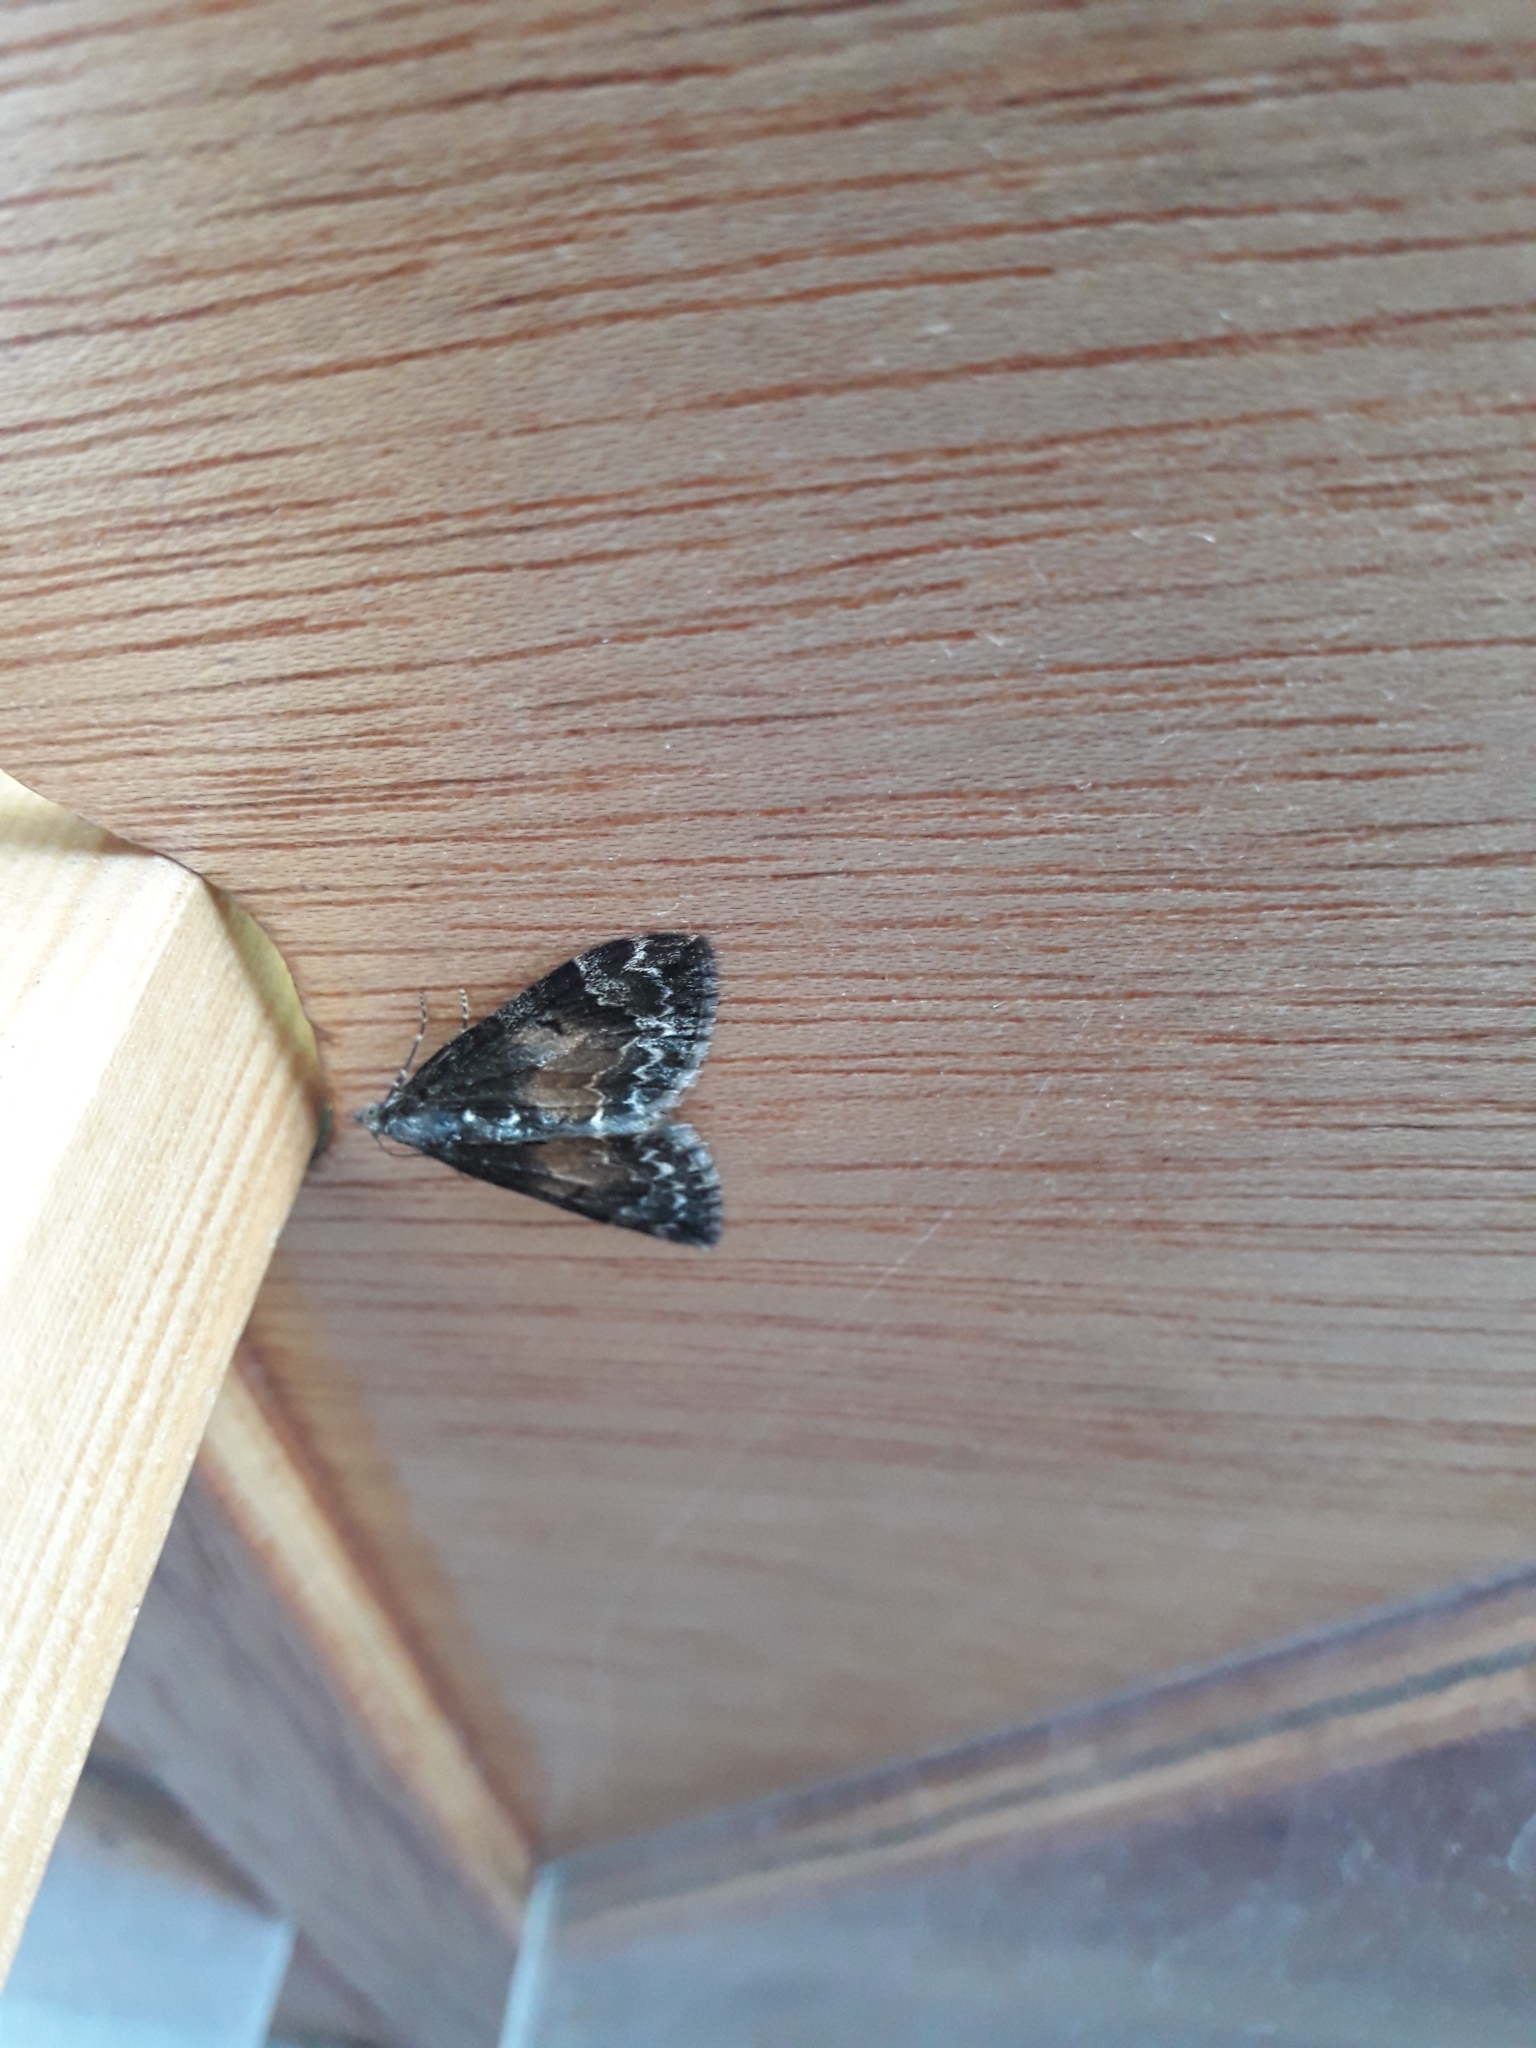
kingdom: Animalia
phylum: Arthropoda
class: Insecta
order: Lepidoptera
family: Geometridae
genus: Dysstroma
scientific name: Dysstroma truncata
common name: Common marbled carpet
